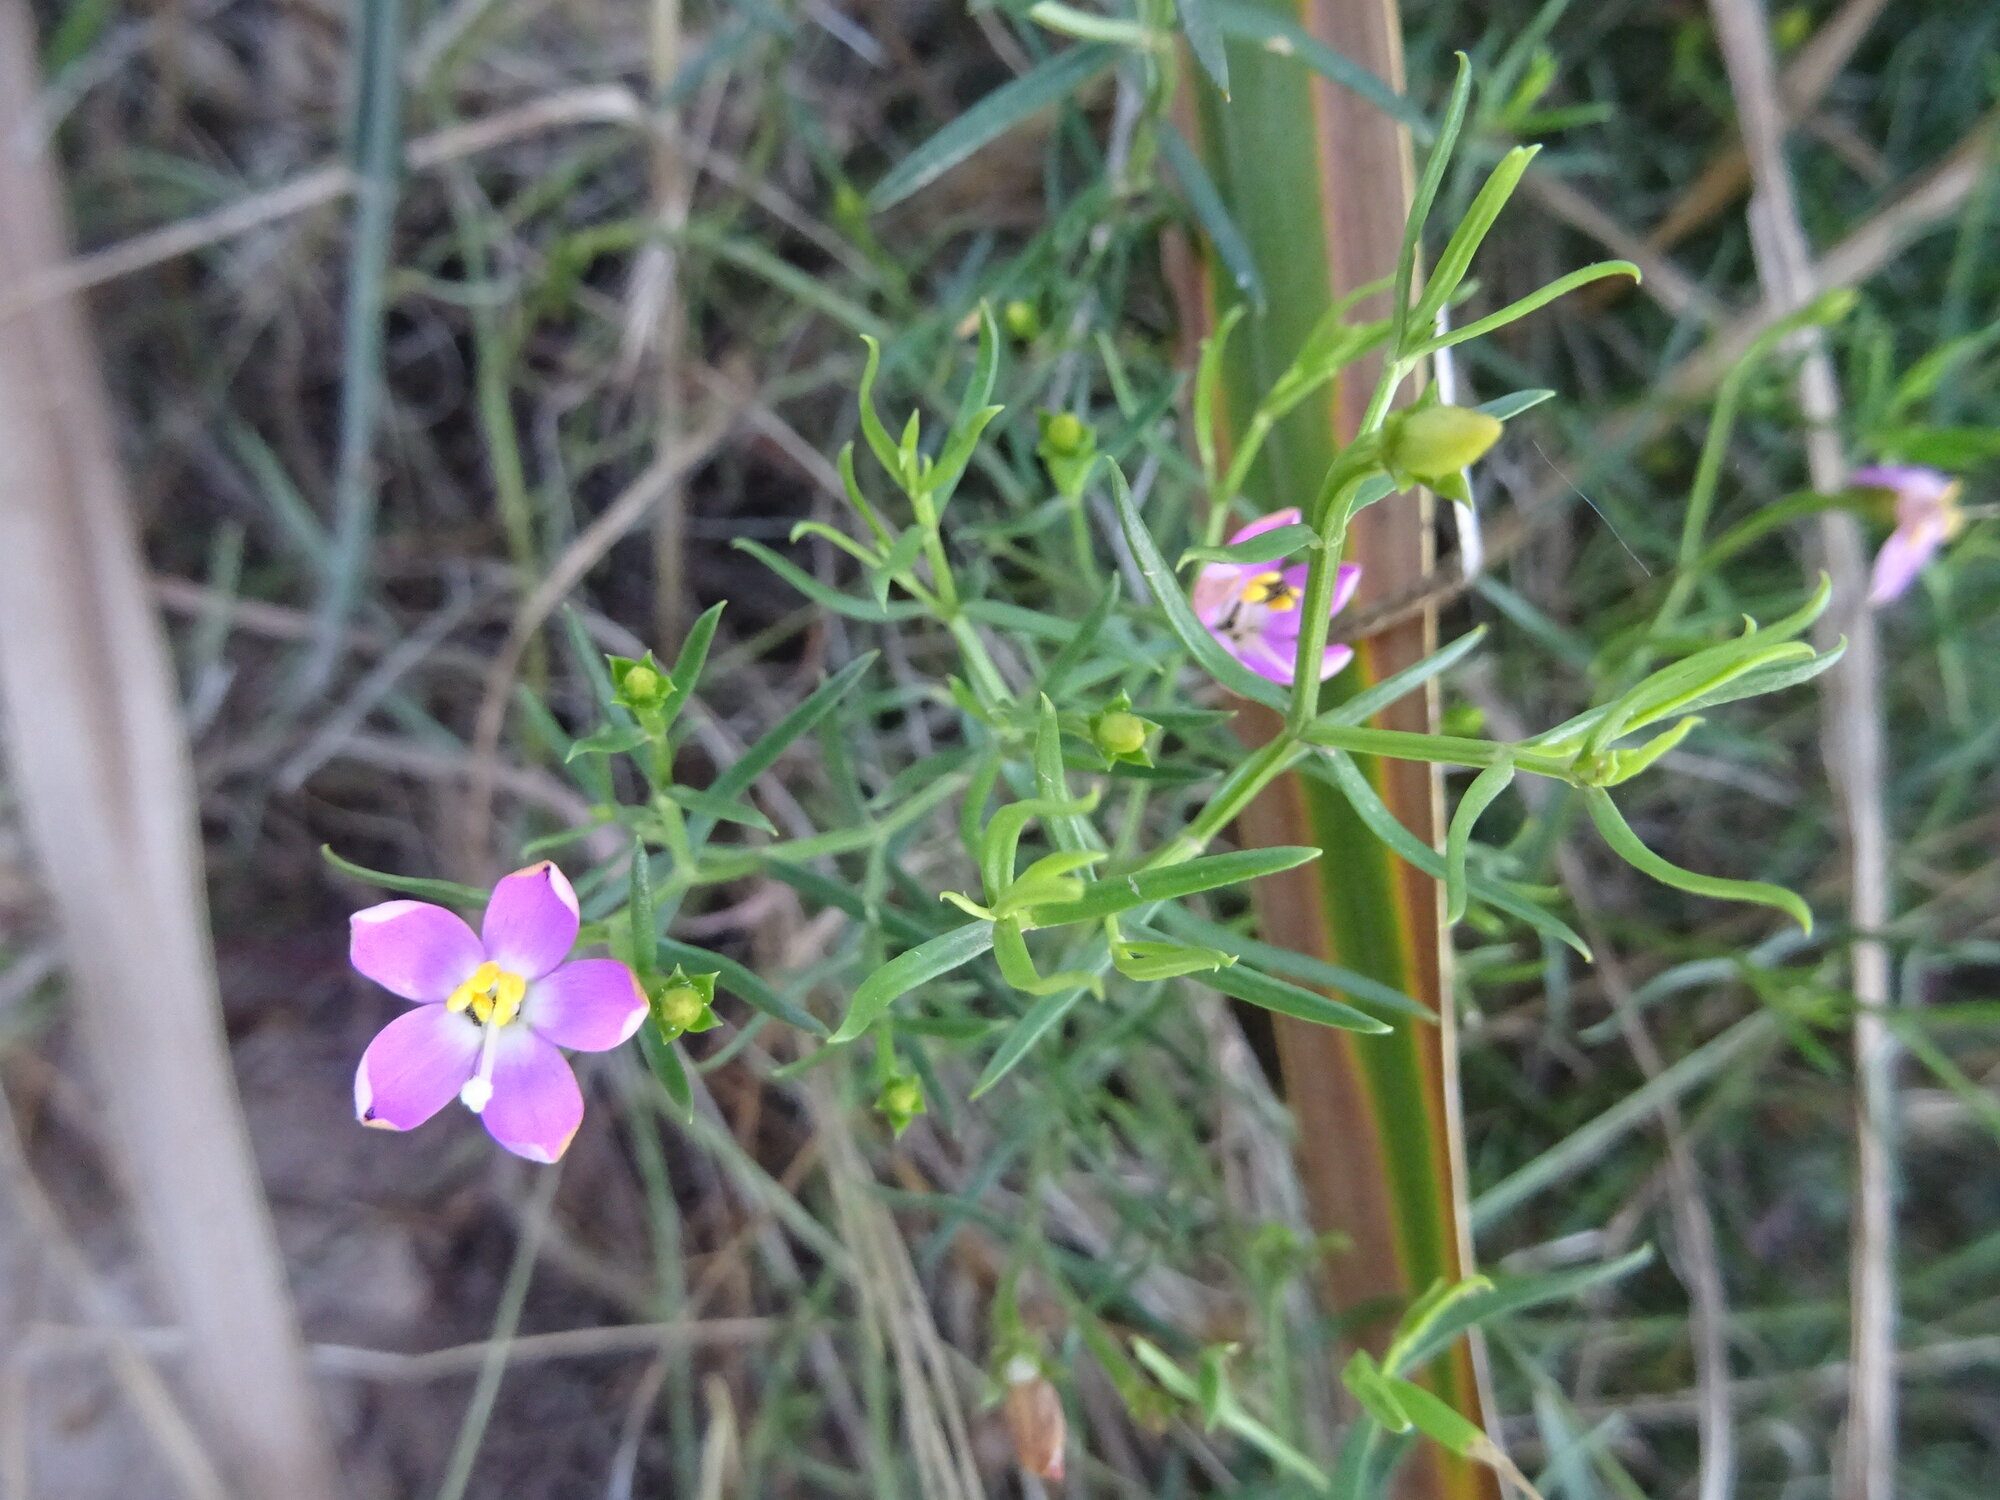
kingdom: Plantae
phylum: Tracheophyta
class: Magnoliopsida
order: Gentianales
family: Gentianaceae
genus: Chironia
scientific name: Chironia baccifera
